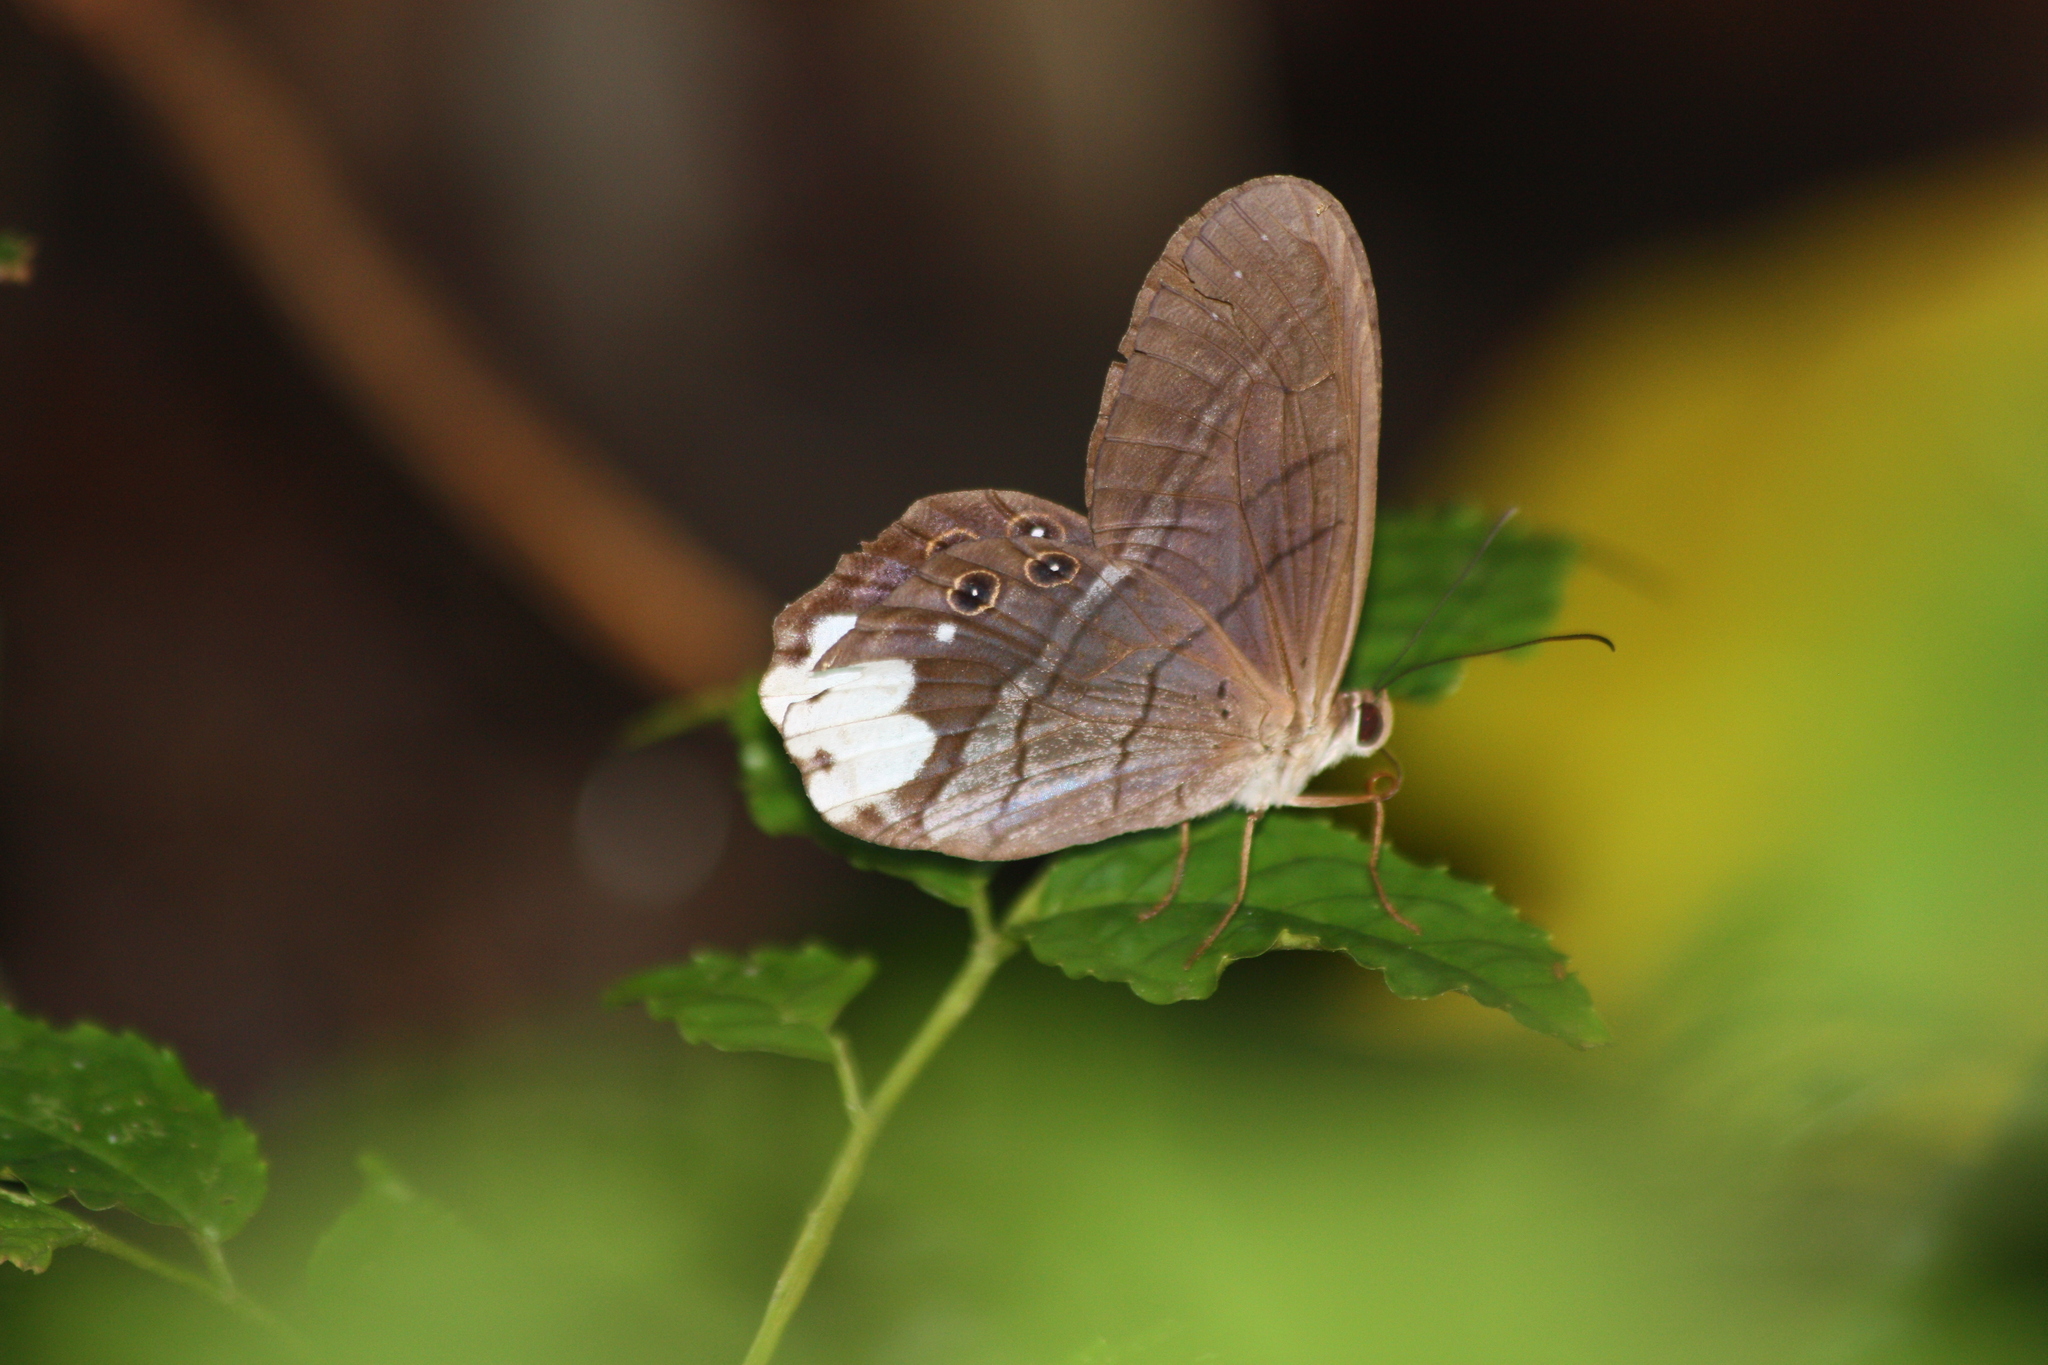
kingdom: Animalia
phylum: Arthropoda
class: Insecta
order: Lepidoptera
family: Nymphalidae
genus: Pierella
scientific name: Pierella astyoche
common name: Astyoche satyr
